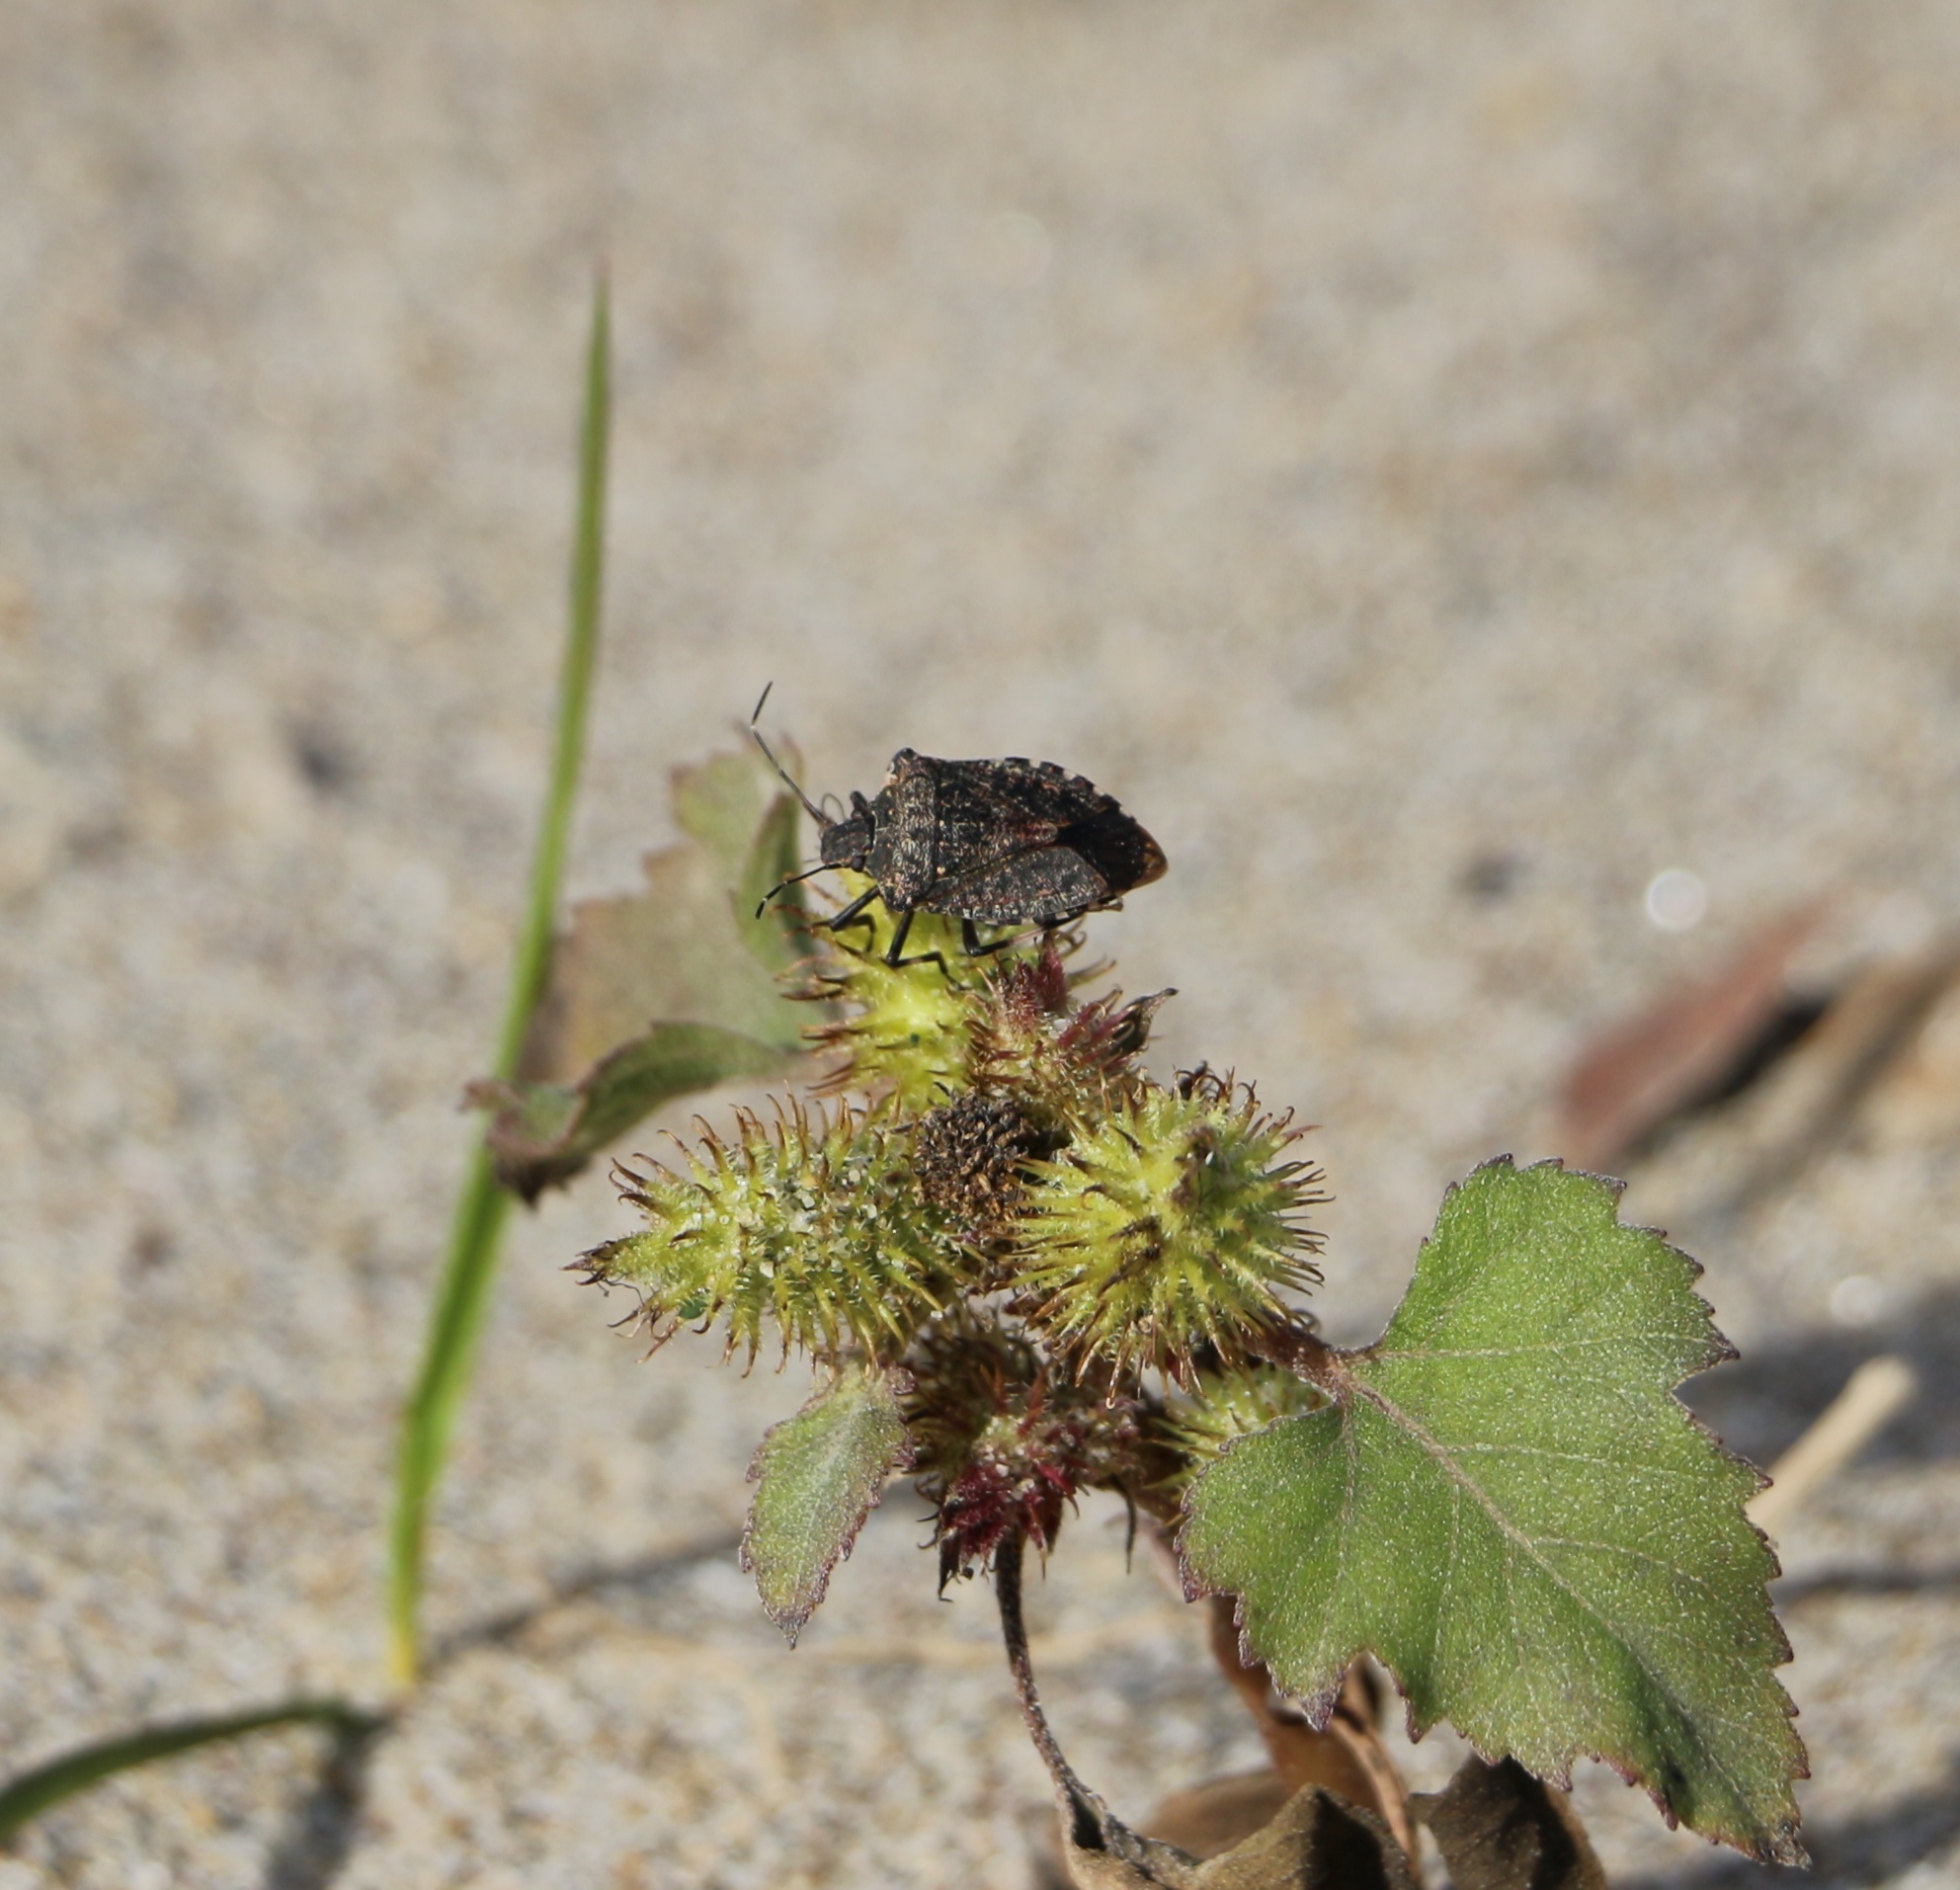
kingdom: Animalia
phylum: Arthropoda
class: Insecta
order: Hemiptera
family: Pentatomidae
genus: Halyomorpha
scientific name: Halyomorpha halys
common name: Brown marmorated stink bug
